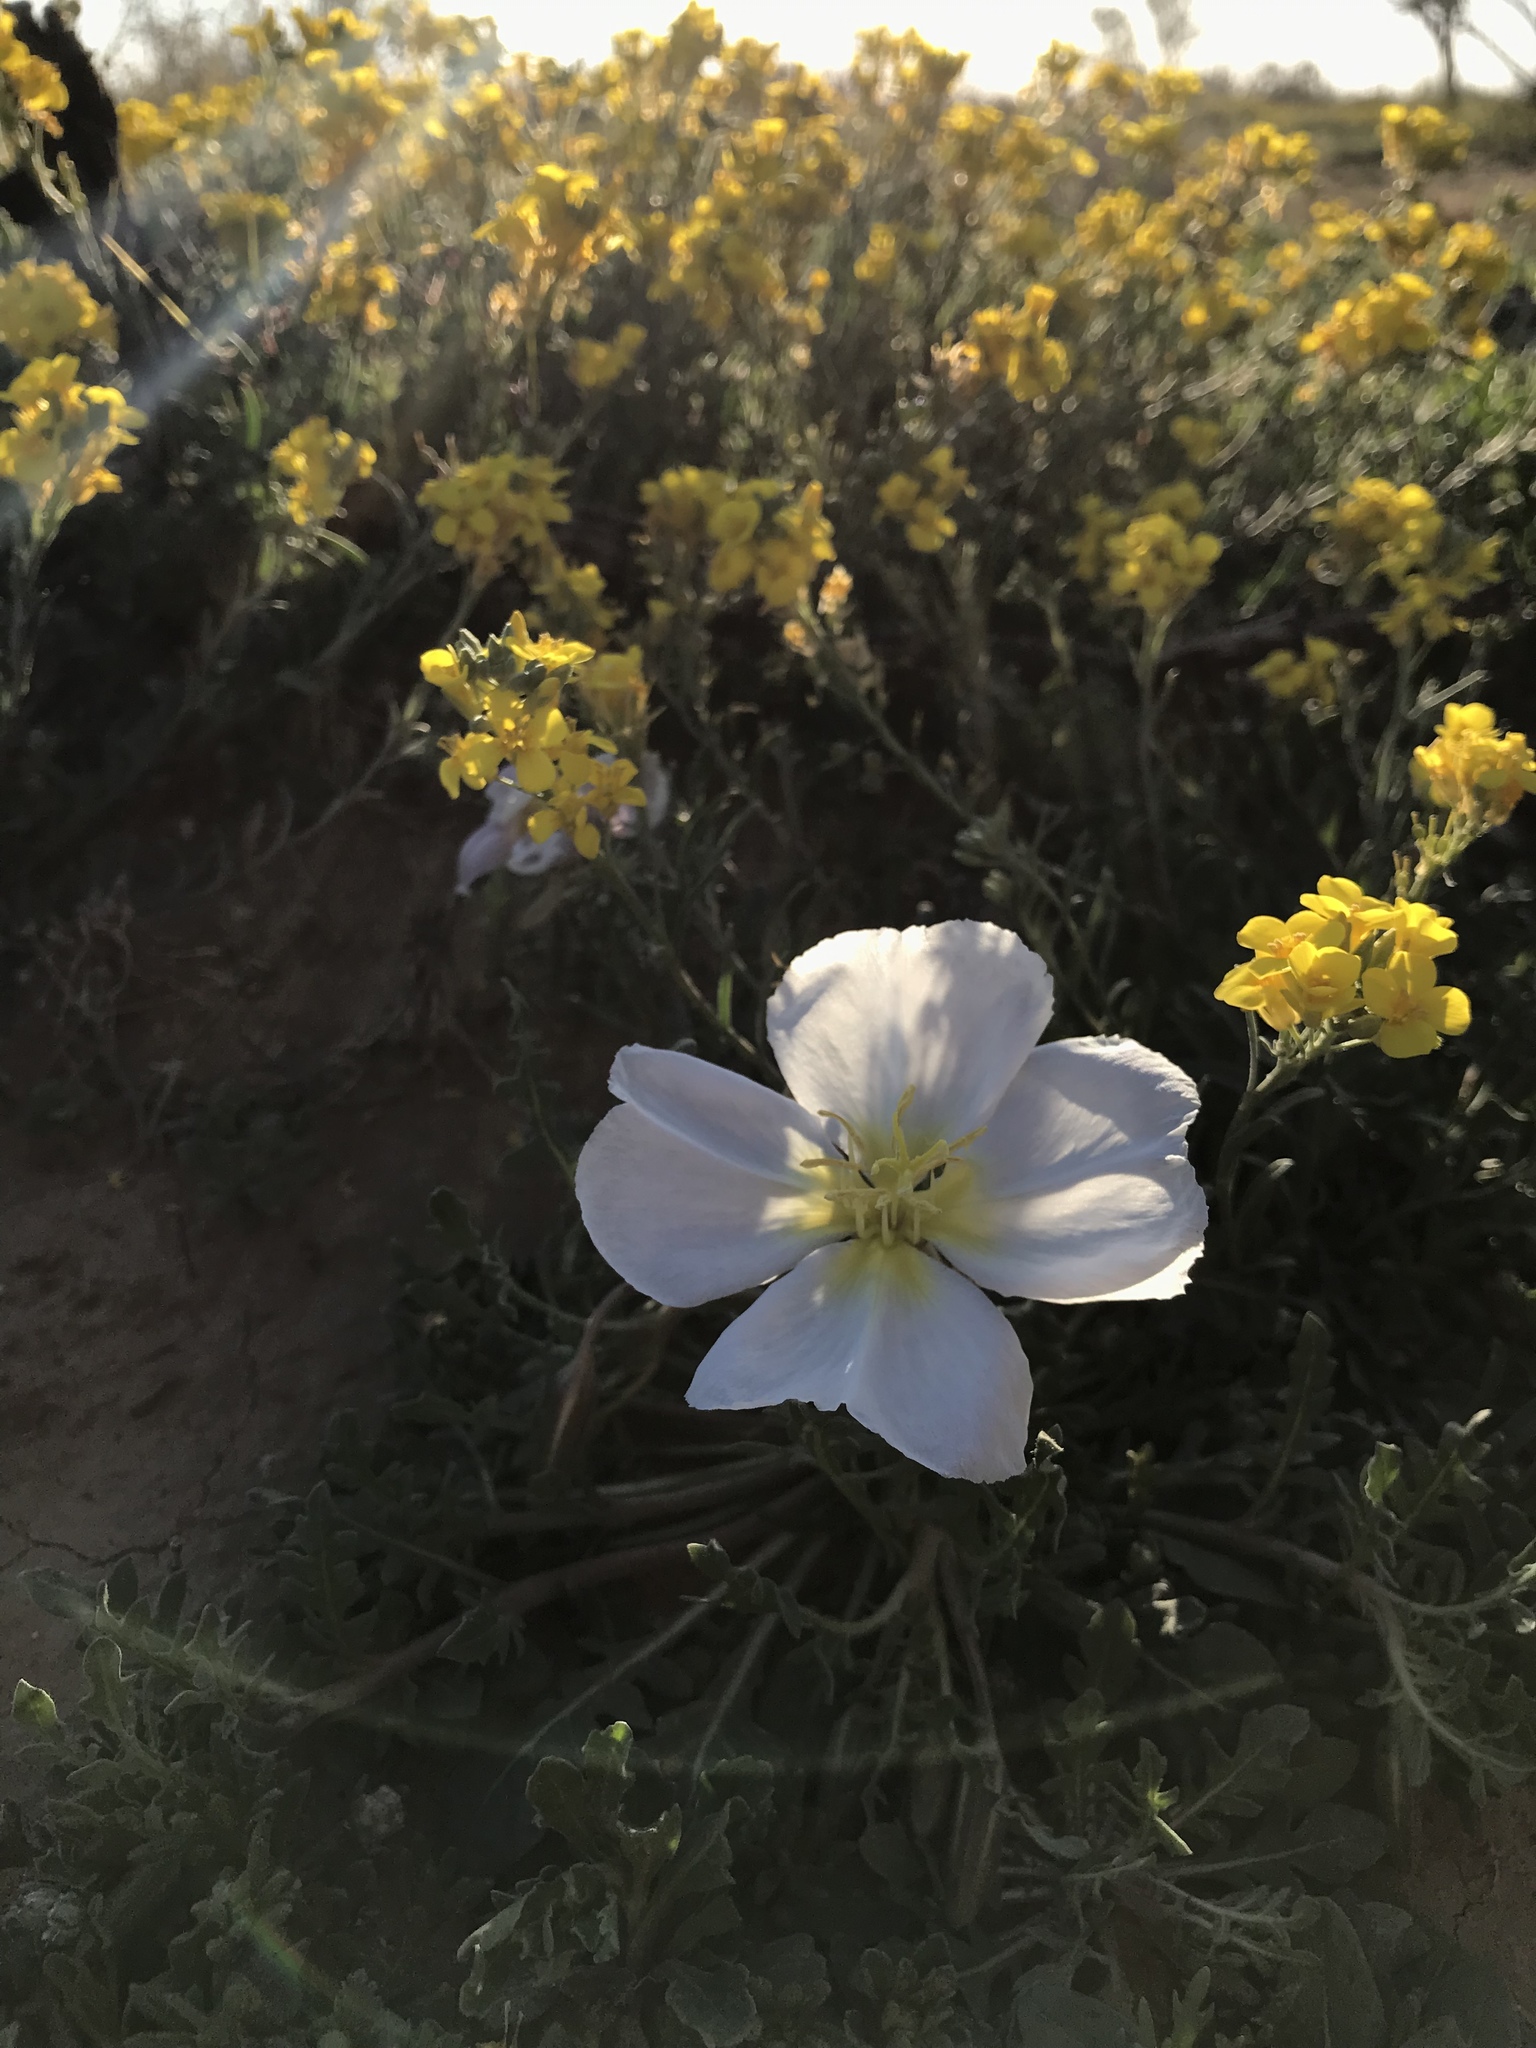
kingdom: Plantae
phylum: Tracheophyta
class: Magnoliopsida
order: Myrtales
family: Onagraceae
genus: Oenothera
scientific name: Oenothera albicaulis
